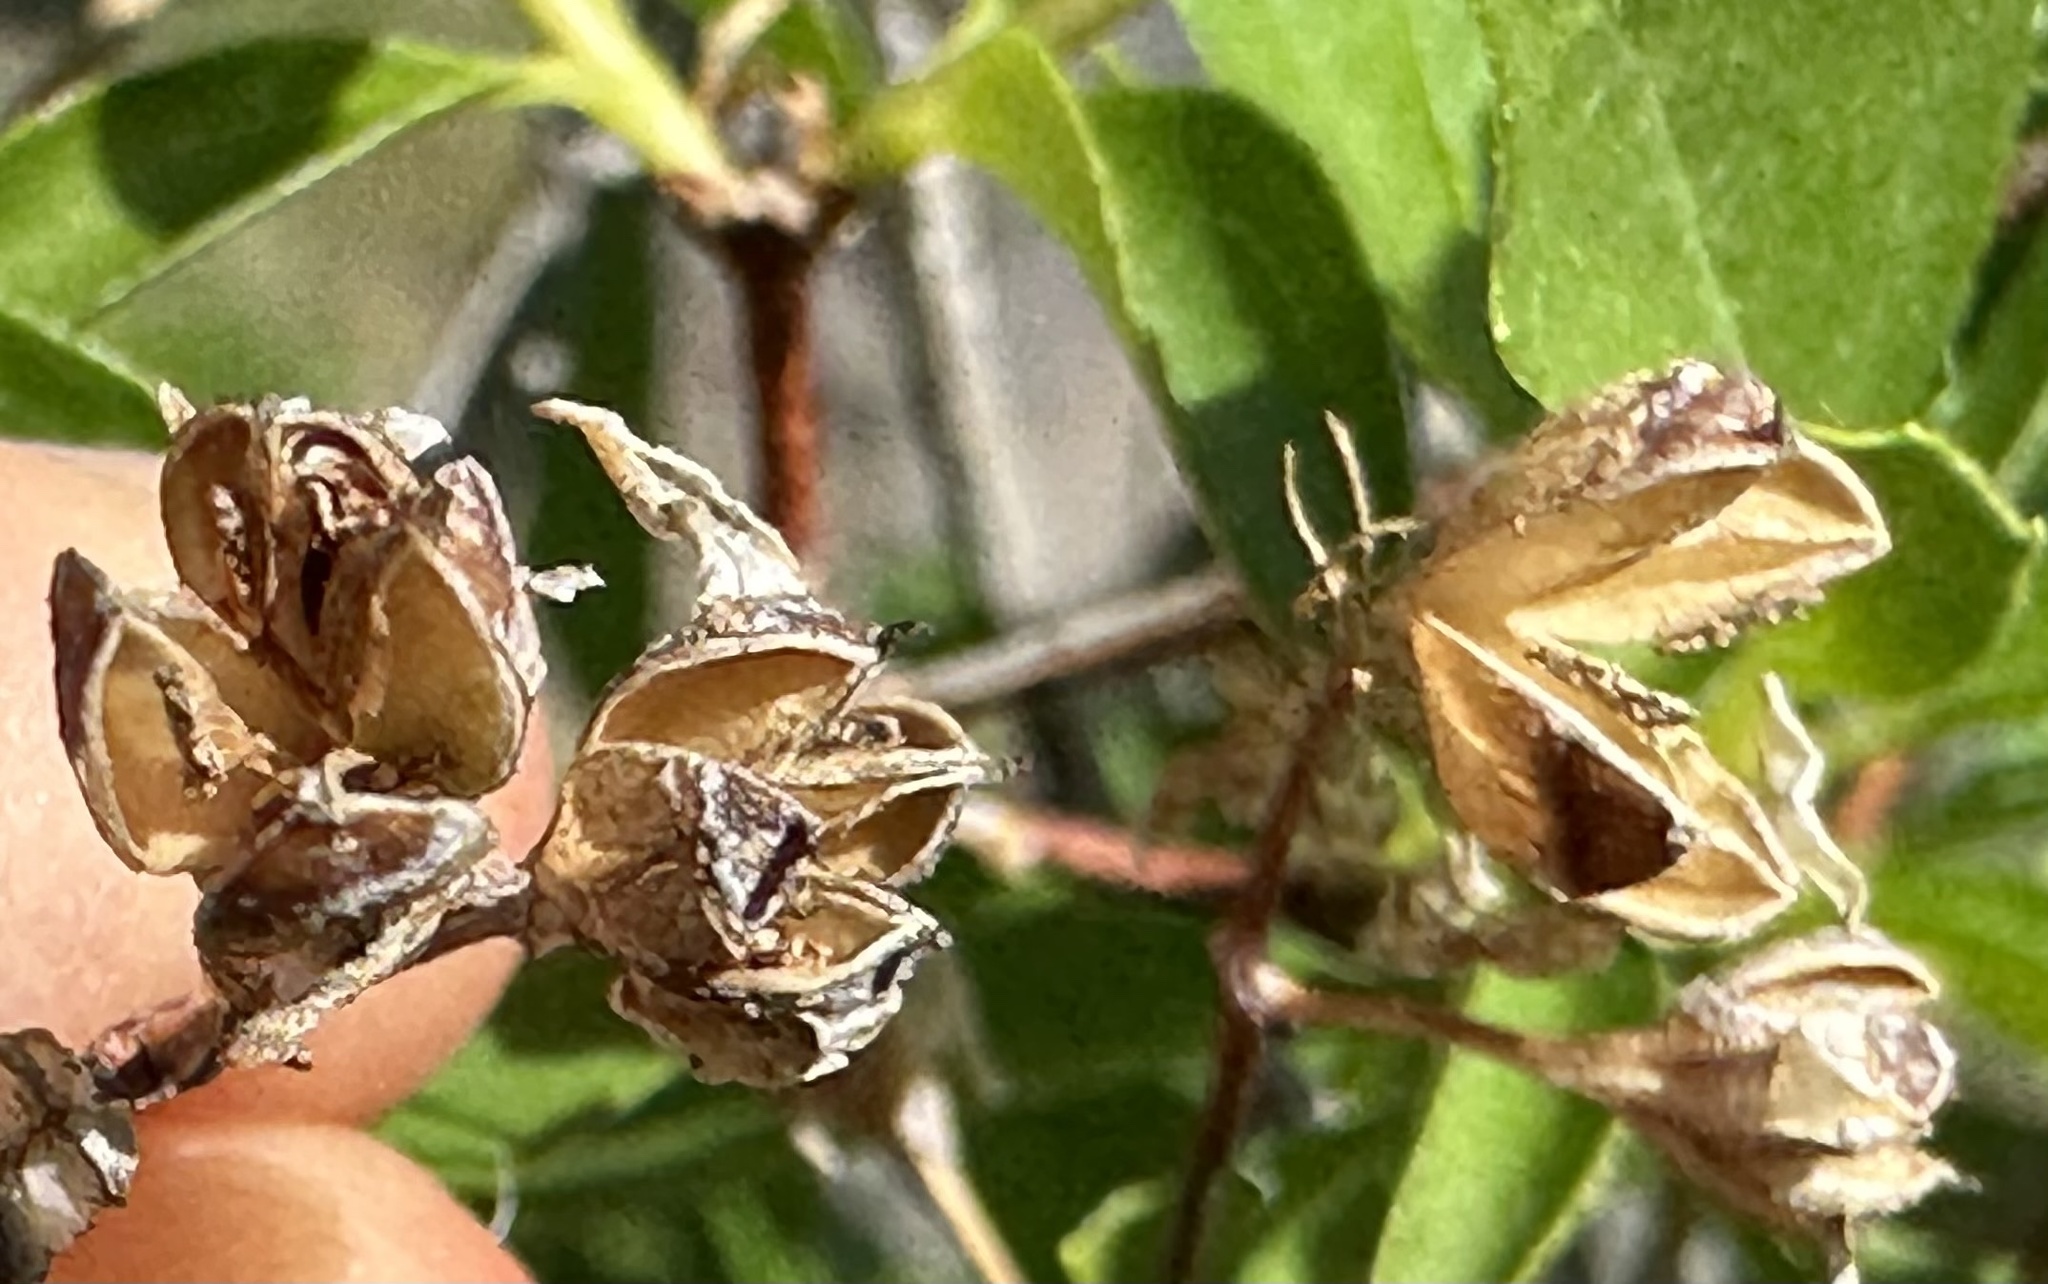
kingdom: Plantae
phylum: Tracheophyta
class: Magnoliopsida
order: Cornales
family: Hydrangeaceae
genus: Philadelphus
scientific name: Philadelphus lewisii
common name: Lewis's mock orange
